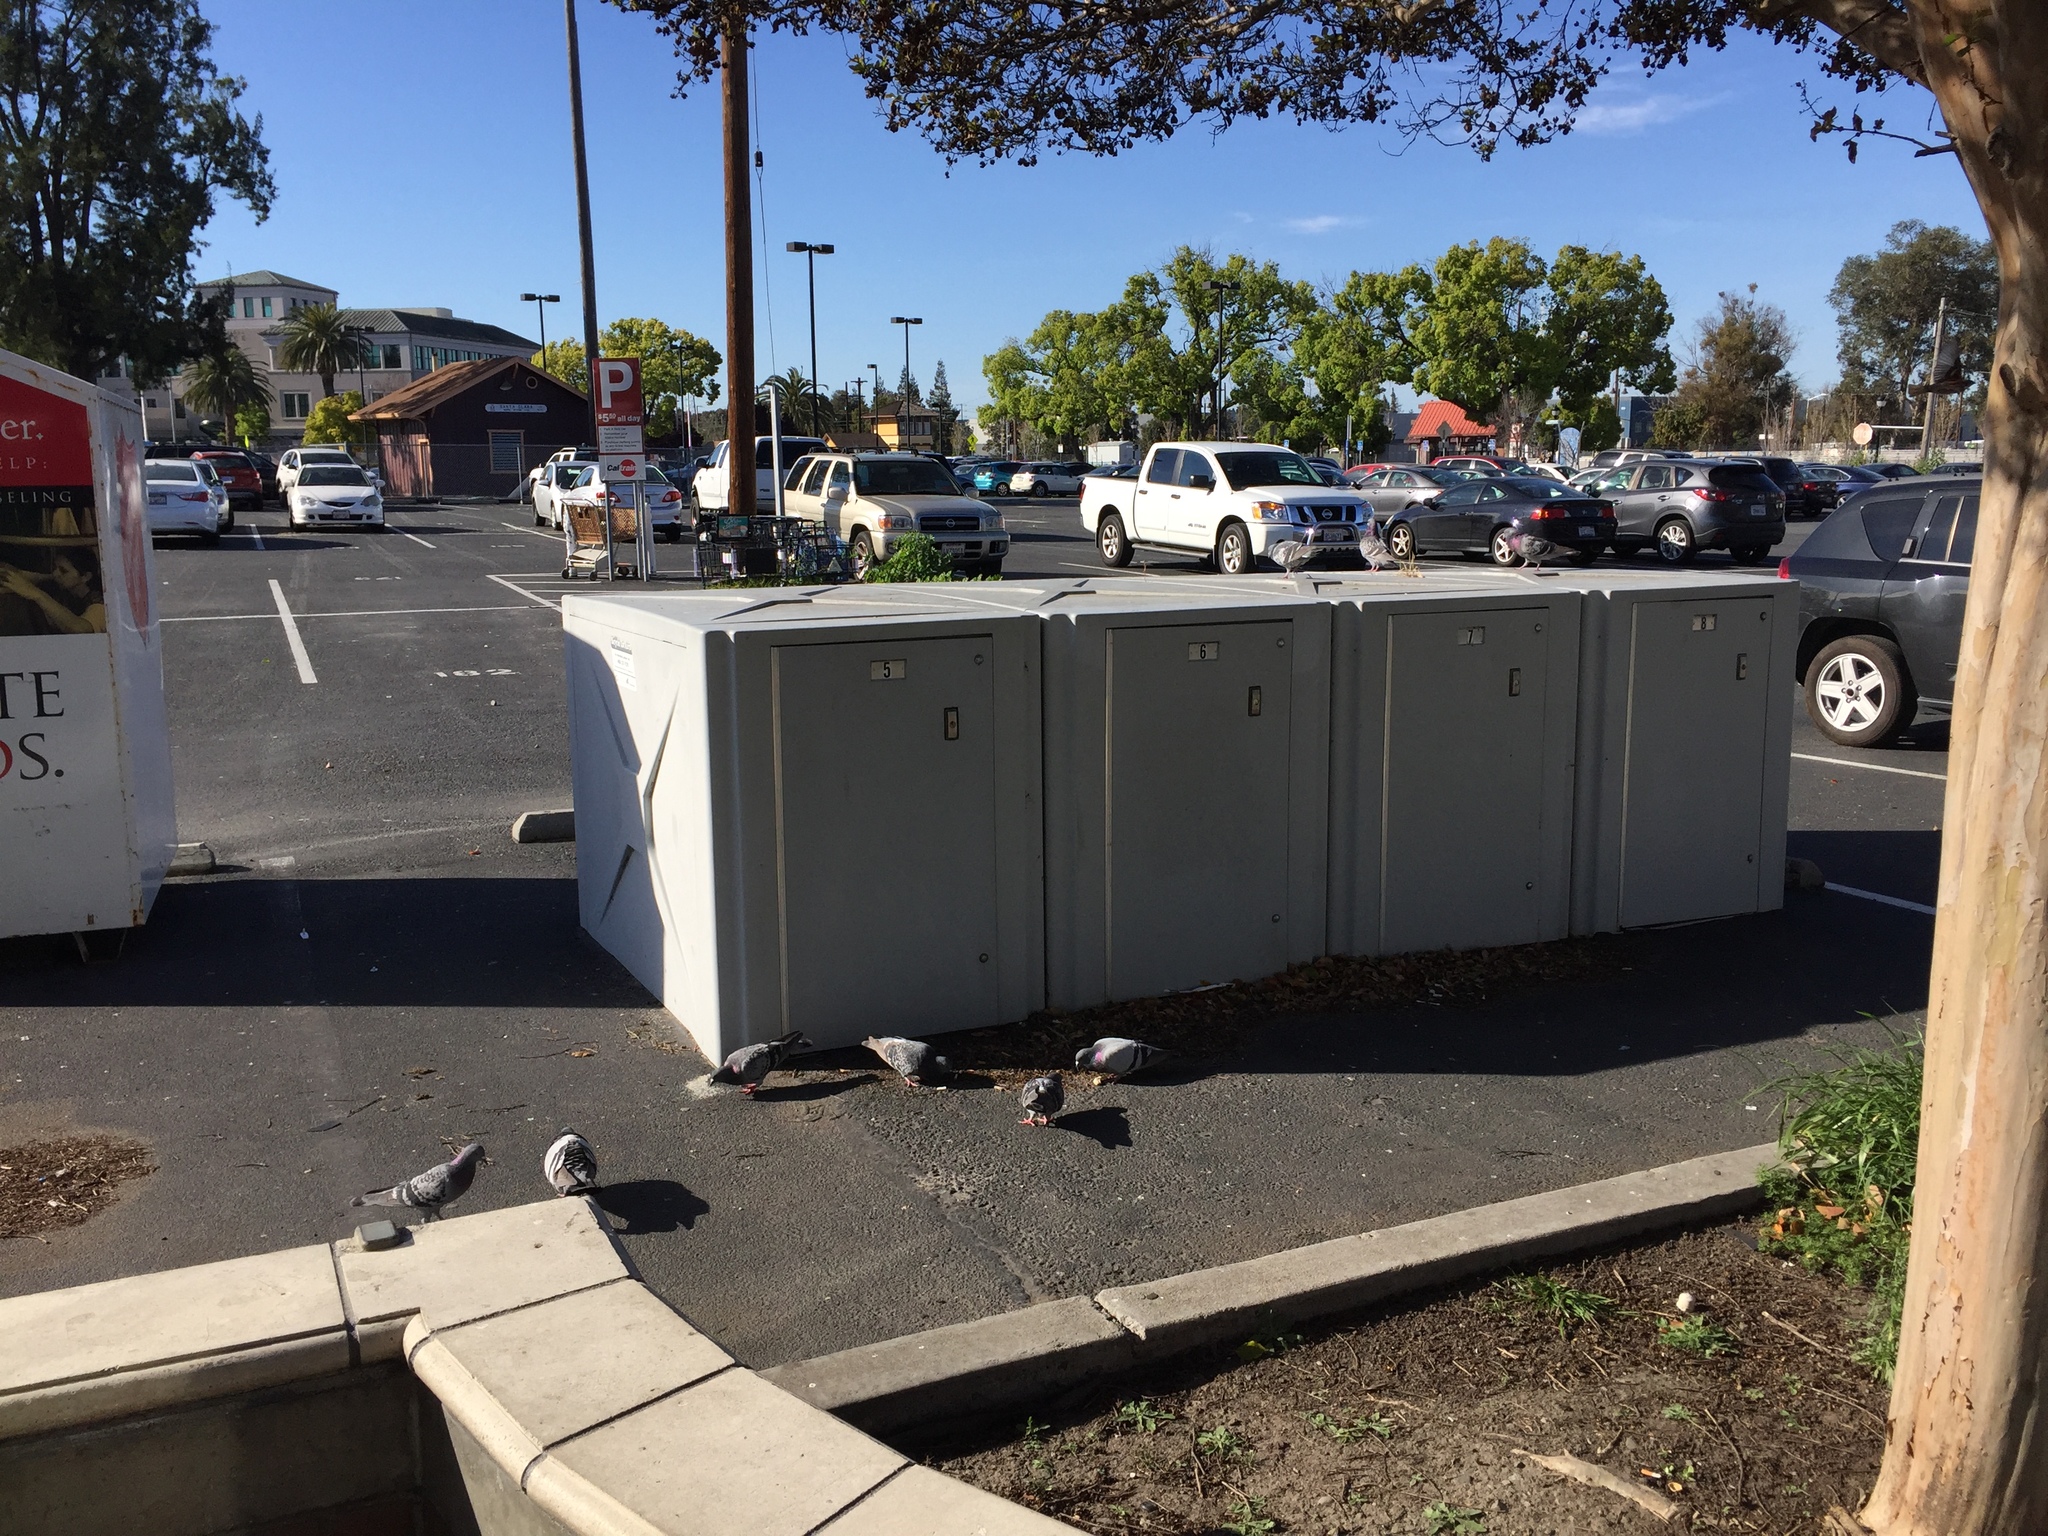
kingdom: Animalia
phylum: Chordata
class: Aves
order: Columbiformes
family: Columbidae
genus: Columba
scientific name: Columba livia
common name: Rock pigeon
